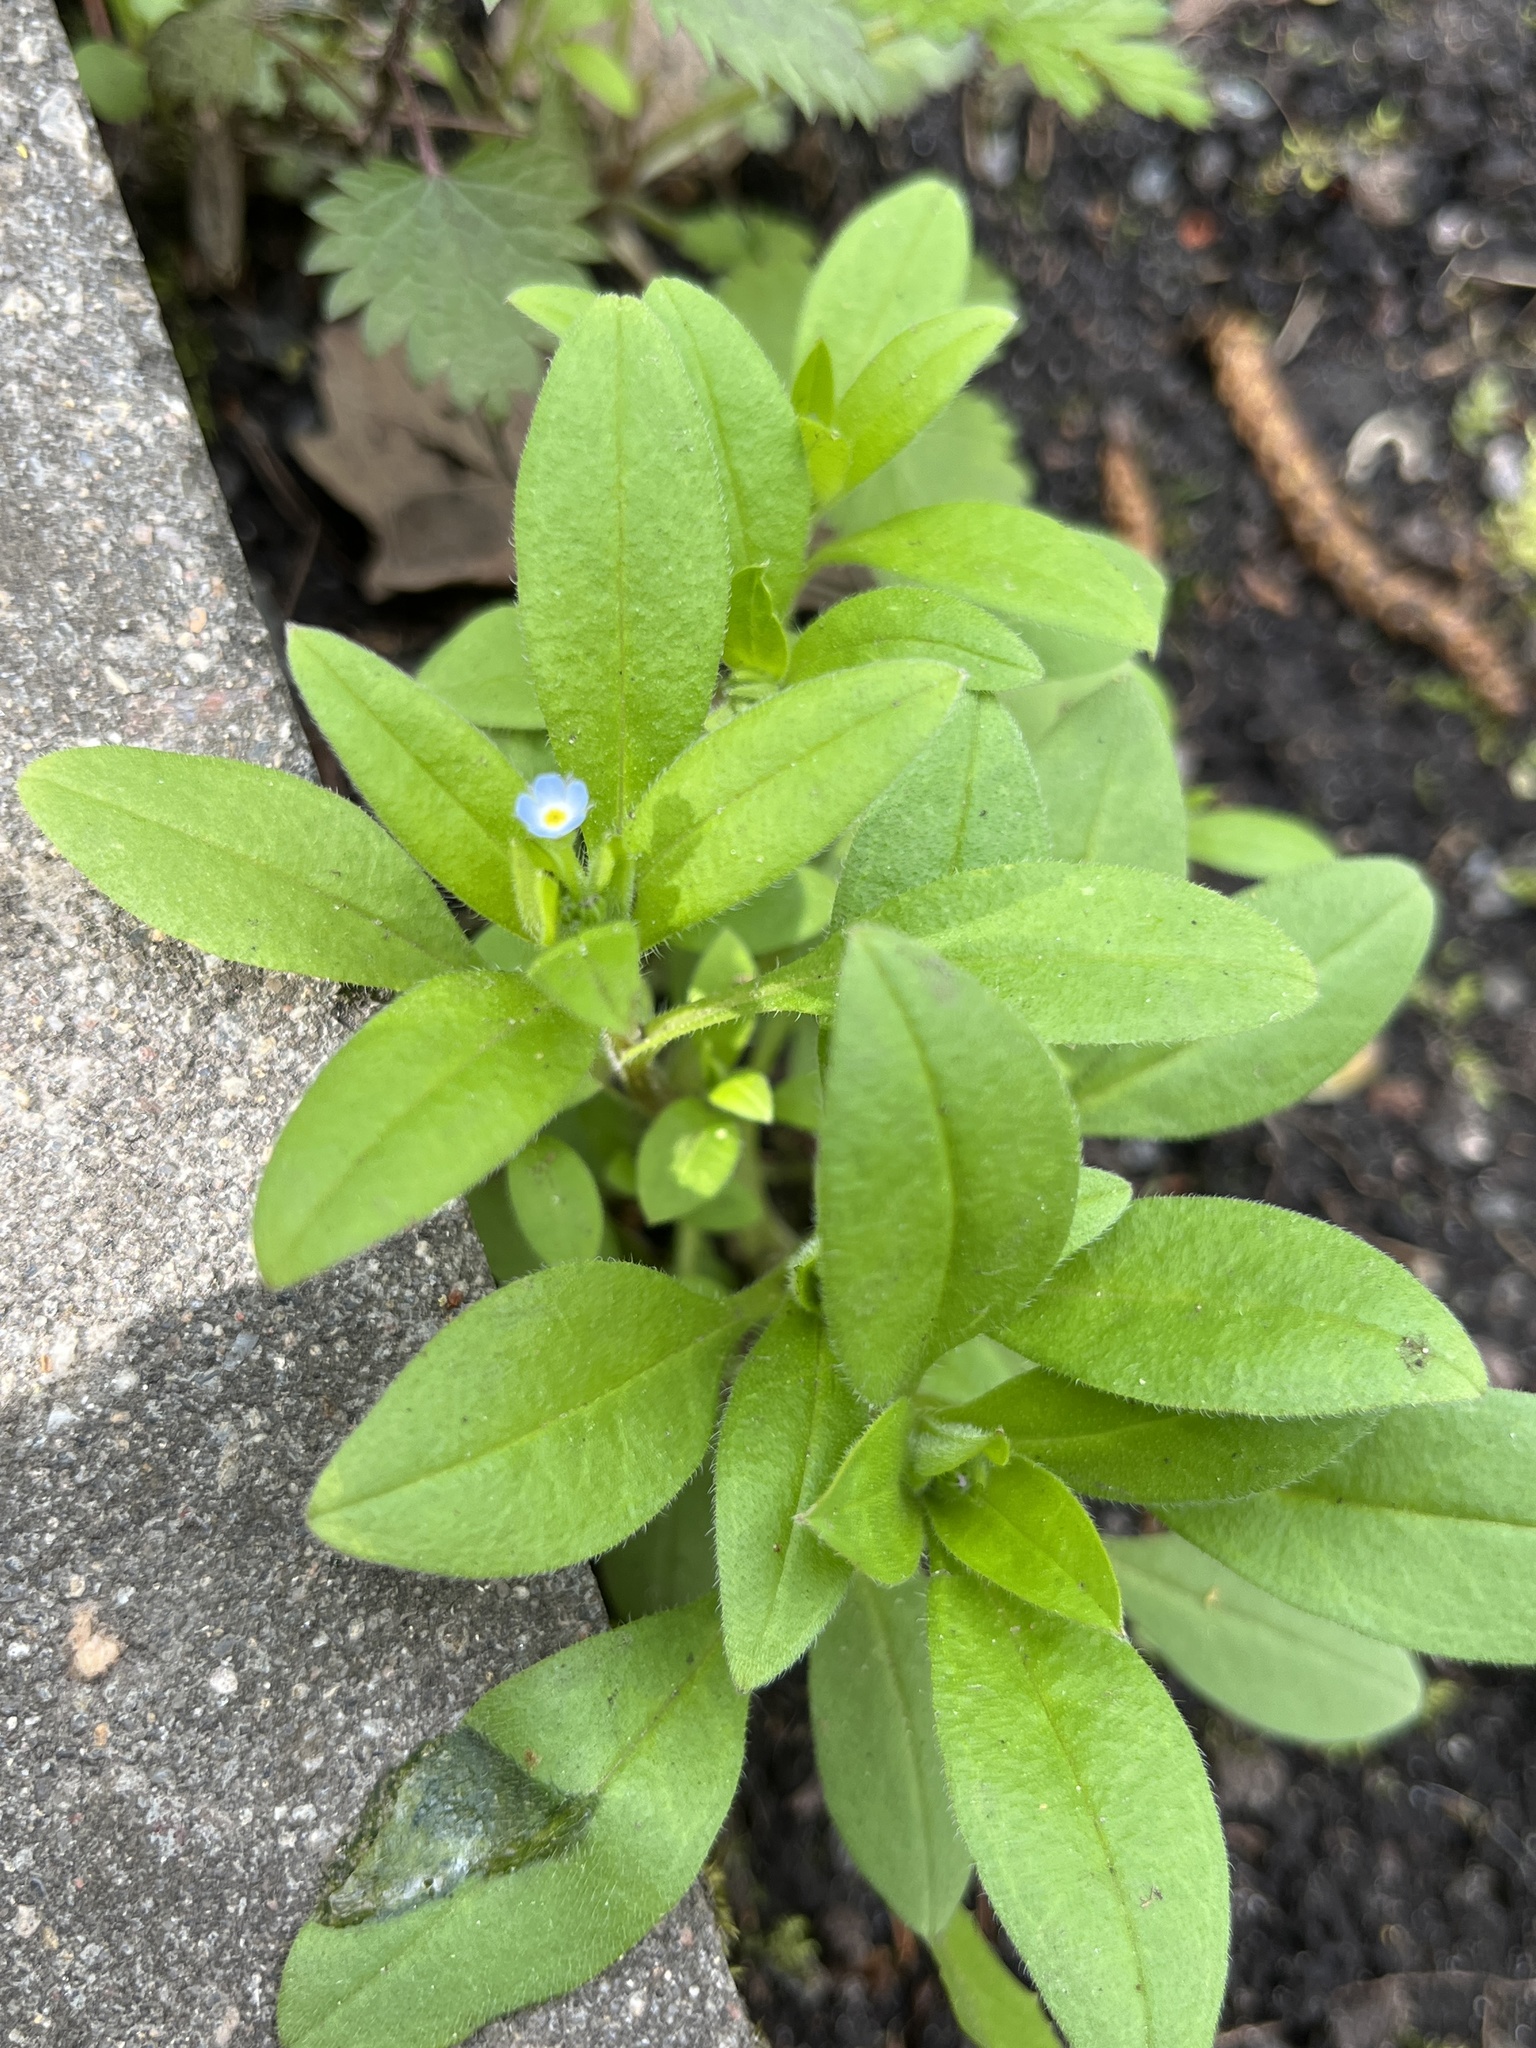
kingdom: Plantae
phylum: Tracheophyta
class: Magnoliopsida
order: Boraginales
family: Boraginaceae
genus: Myosotis
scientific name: Myosotis sparsiflora
